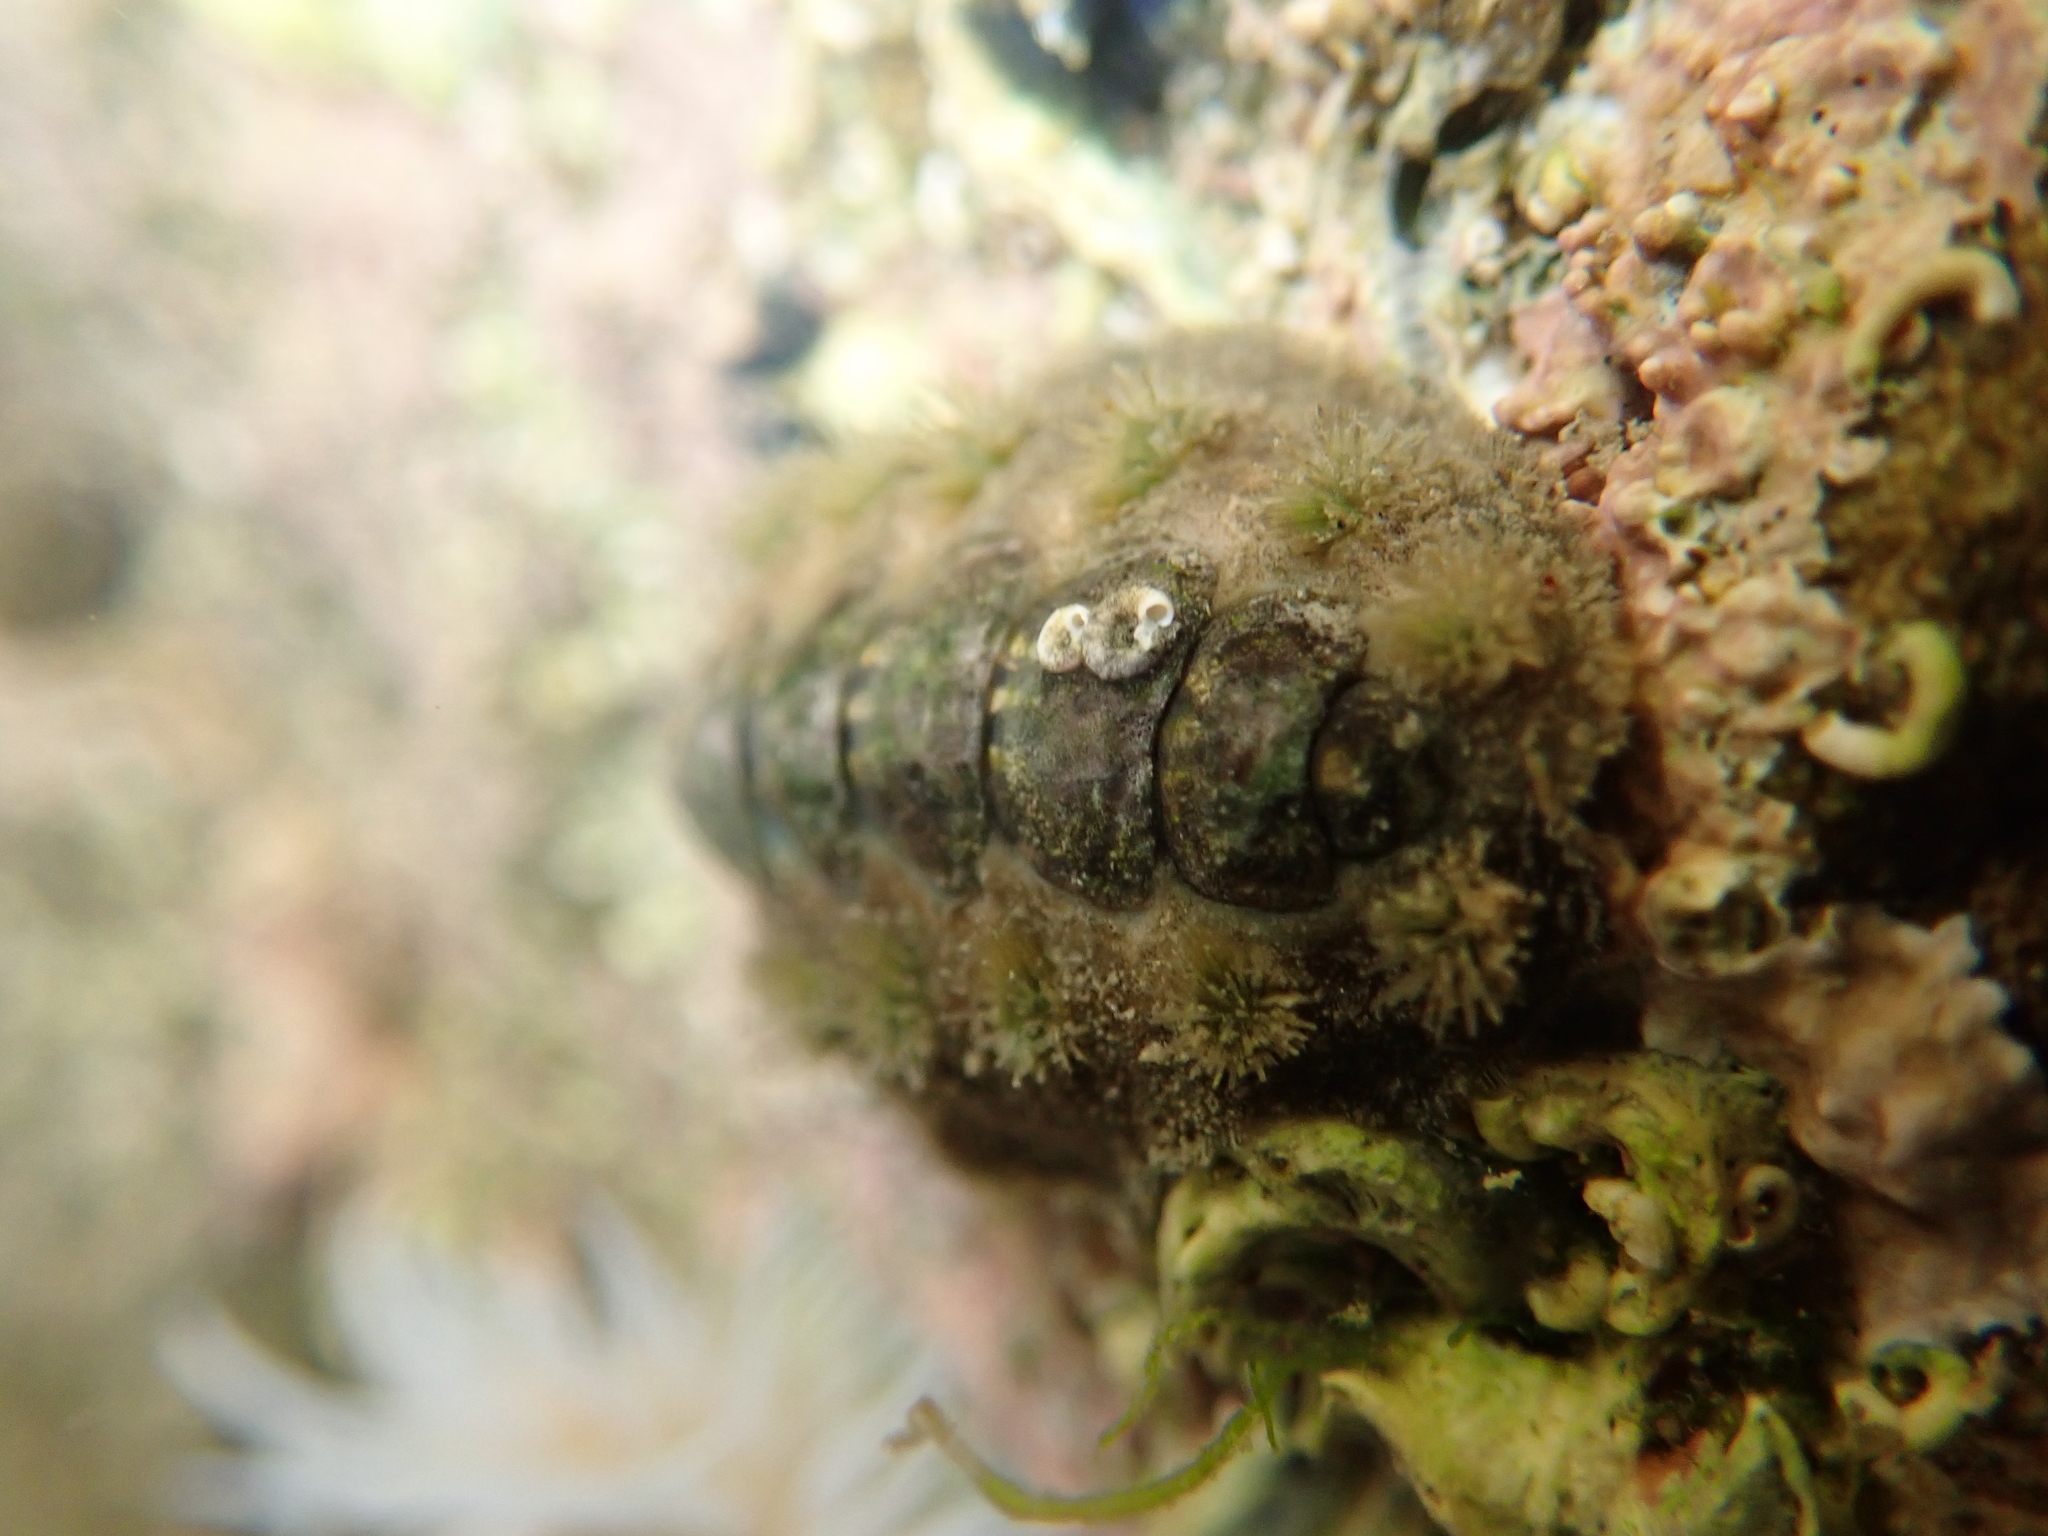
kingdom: Animalia
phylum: Mollusca
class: Polyplacophora
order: Chitonida
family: Acanthochitonidae
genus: Acanthochitona
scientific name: Acanthochitona zelandica
